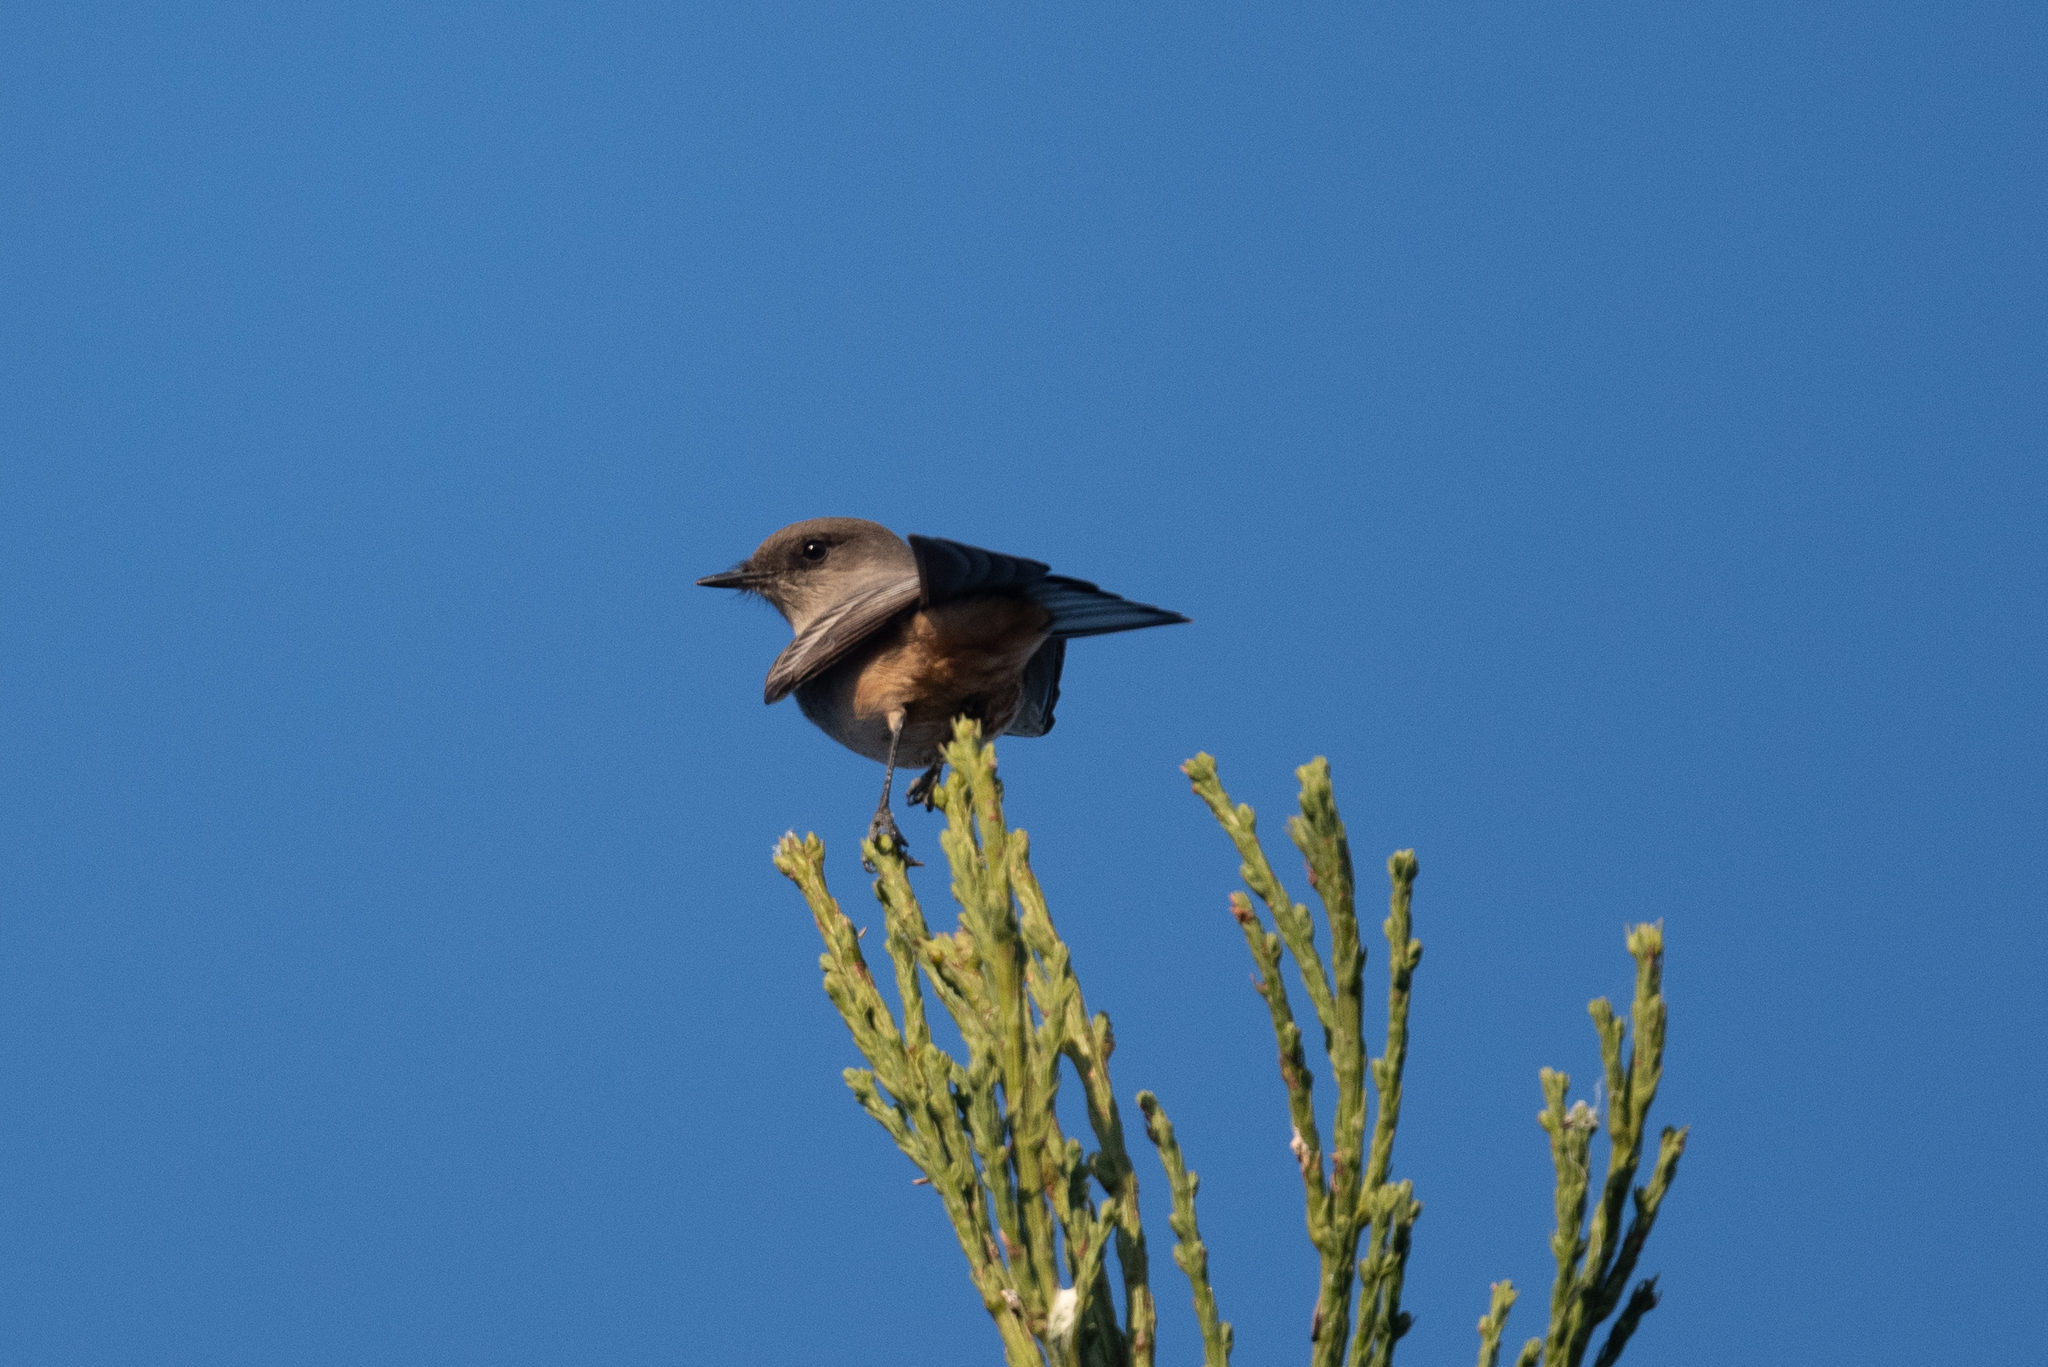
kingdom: Animalia
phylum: Chordata
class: Aves
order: Passeriformes
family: Tyrannidae
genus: Sayornis
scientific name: Sayornis saya
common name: Say's phoebe
